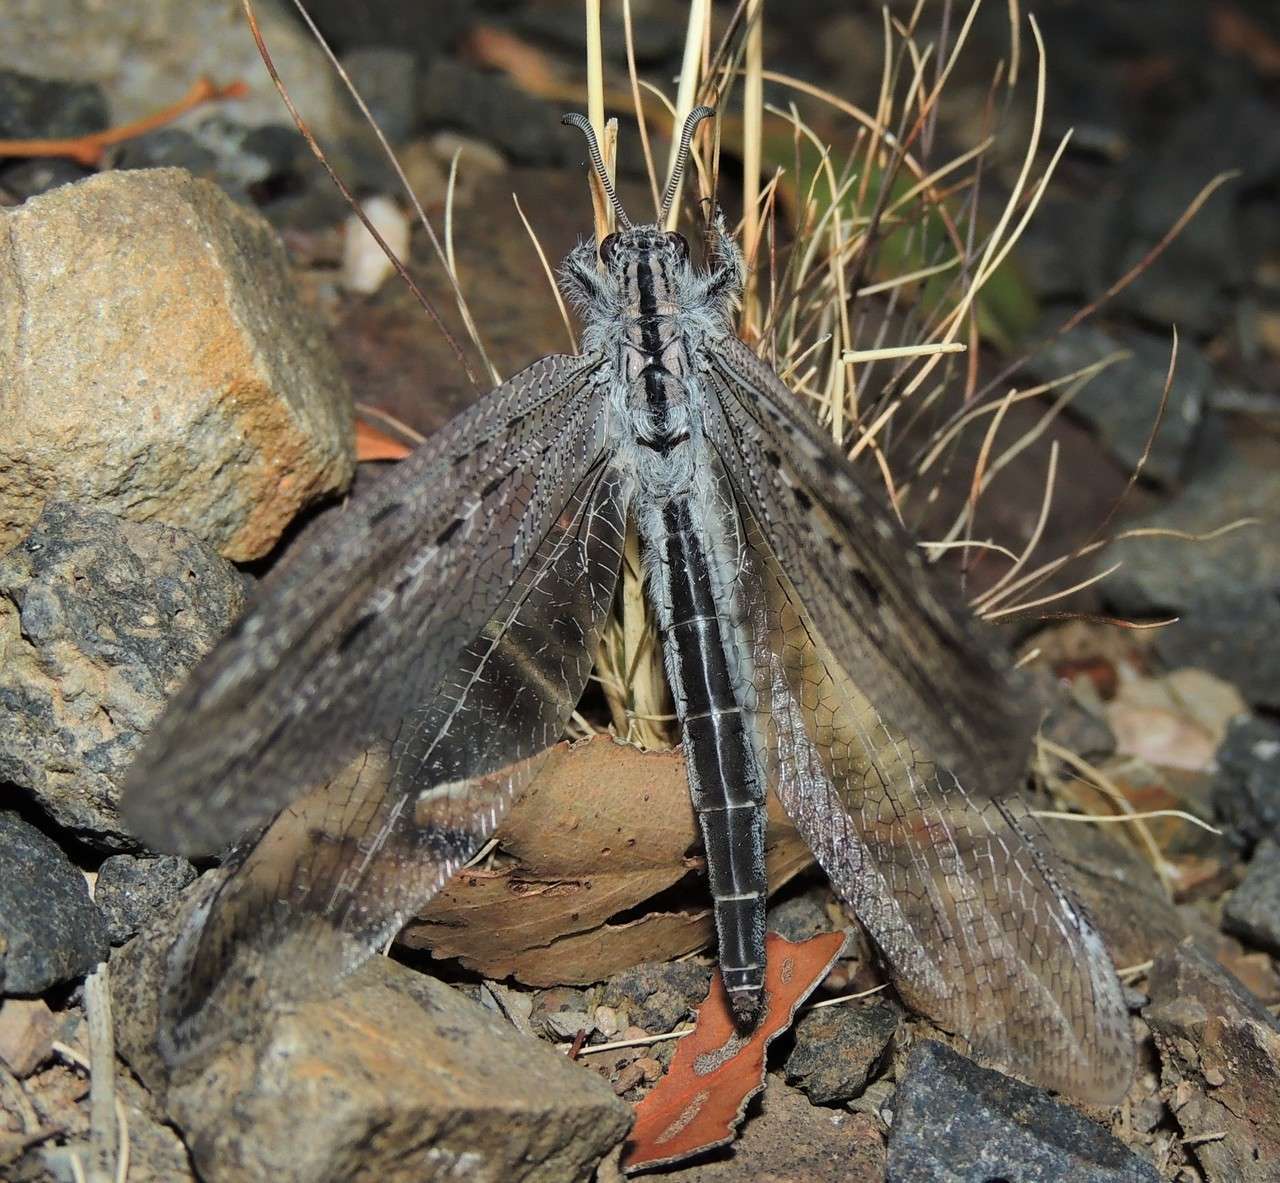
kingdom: Animalia
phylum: Arthropoda
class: Insecta
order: Neuroptera
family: Myrmeleontidae
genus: Heoclisis
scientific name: Heoclisis fundata
